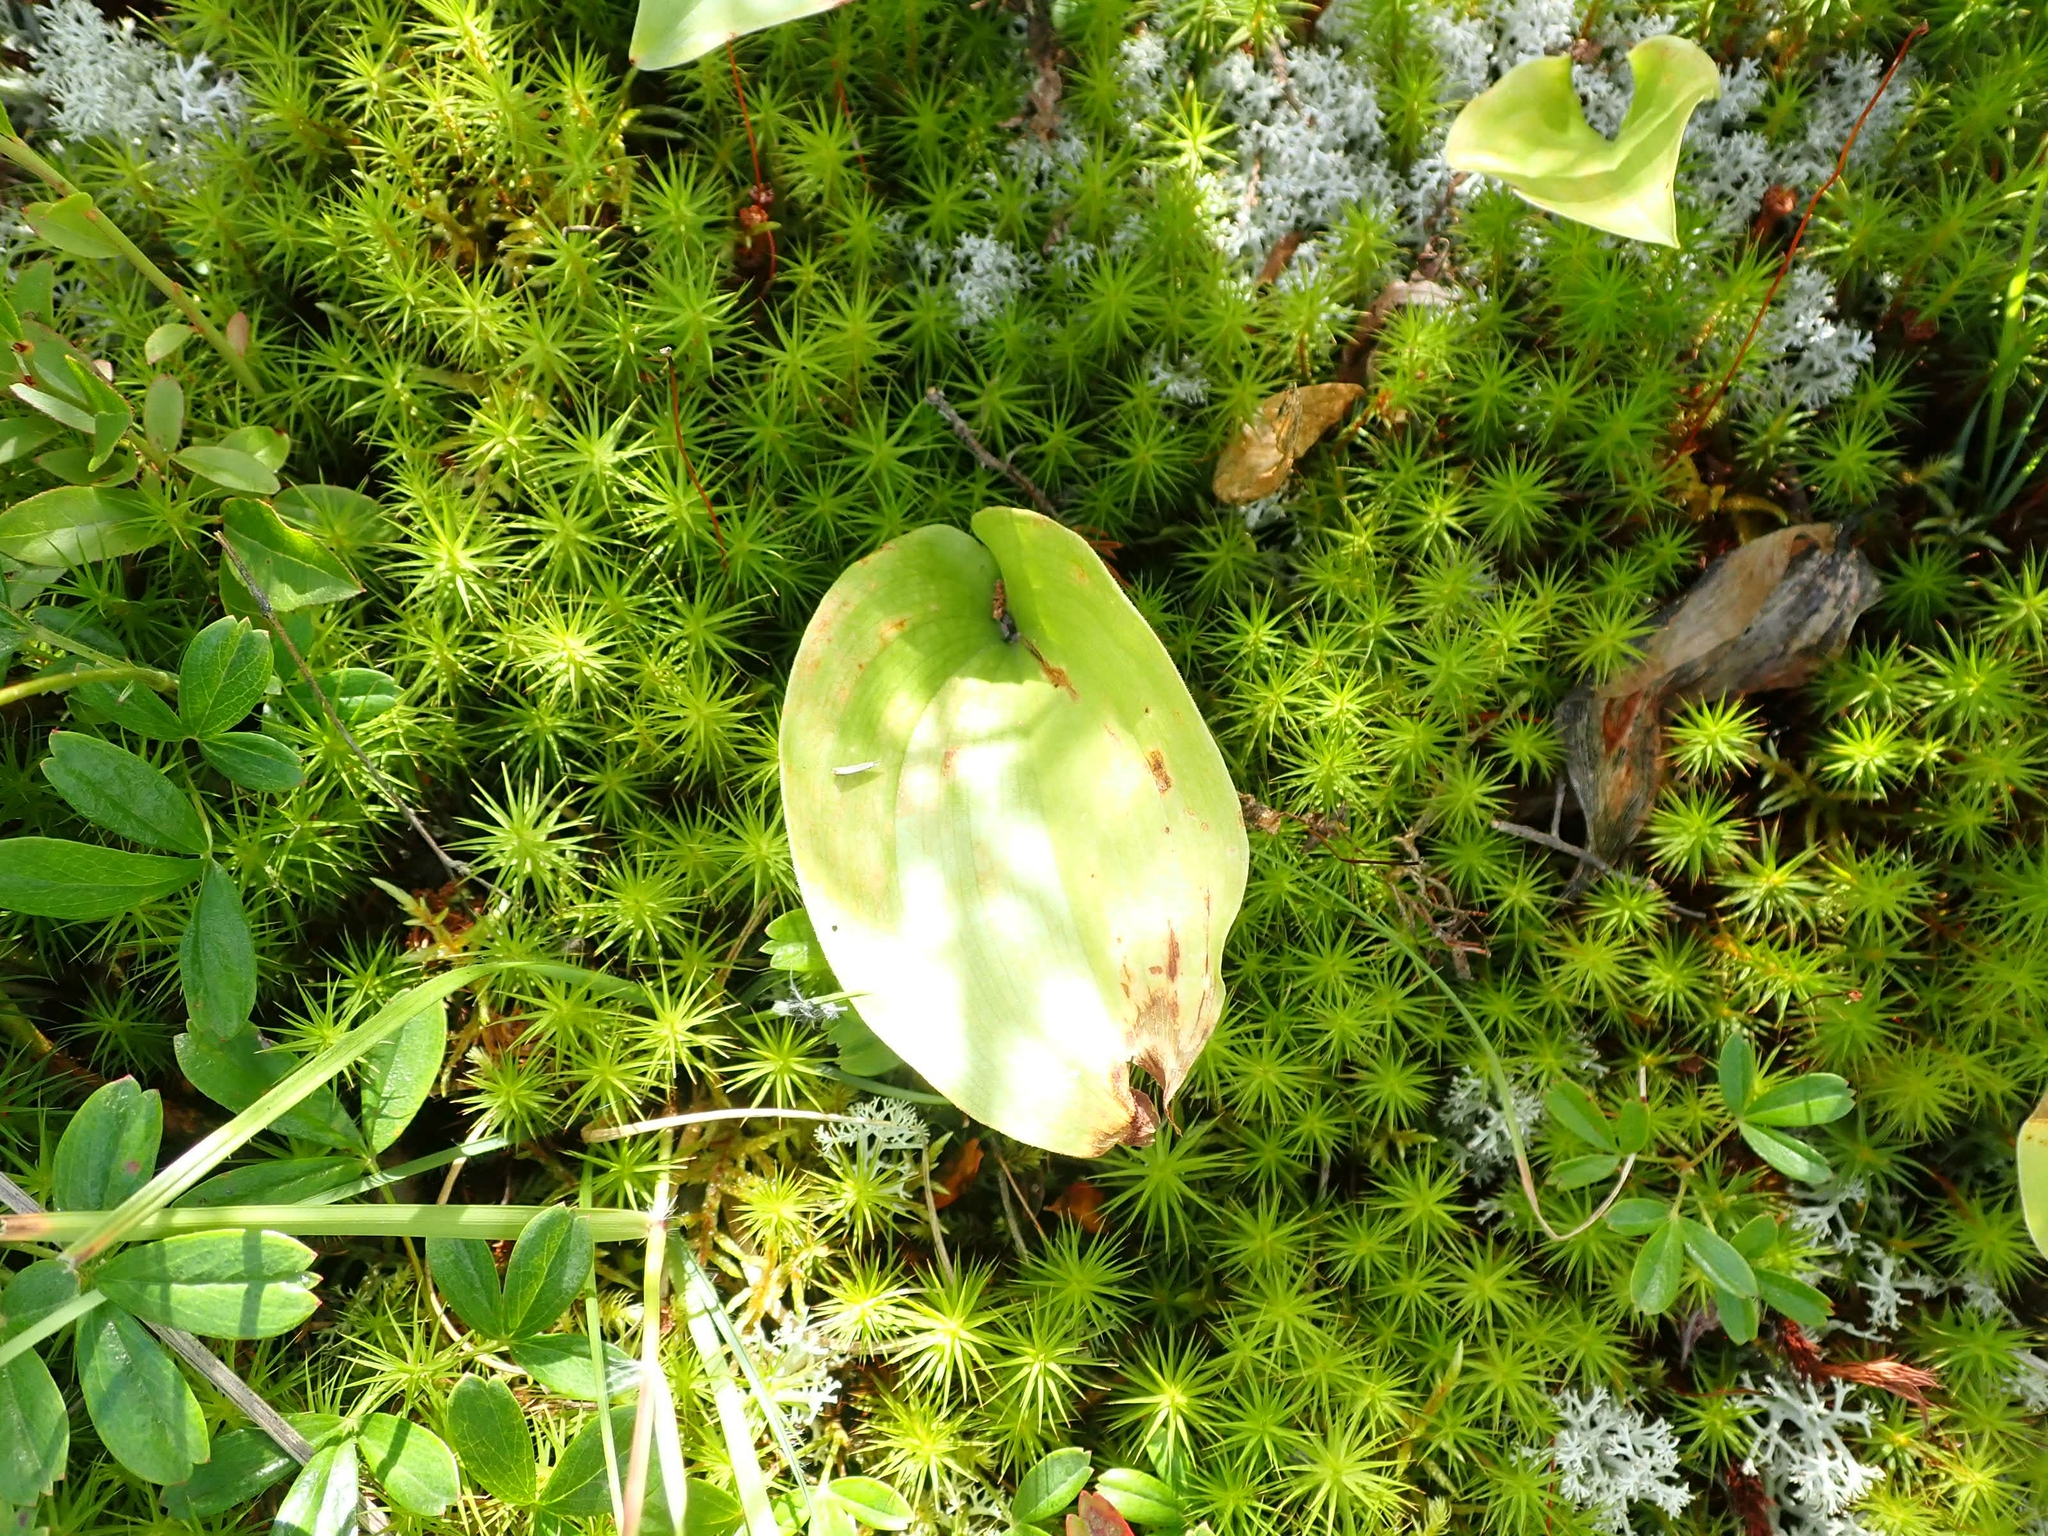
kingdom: Plantae
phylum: Tracheophyta
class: Liliopsida
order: Asparagales
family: Asparagaceae
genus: Maianthemum
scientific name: Maianthemum canadense
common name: False lily-of-the-valley
